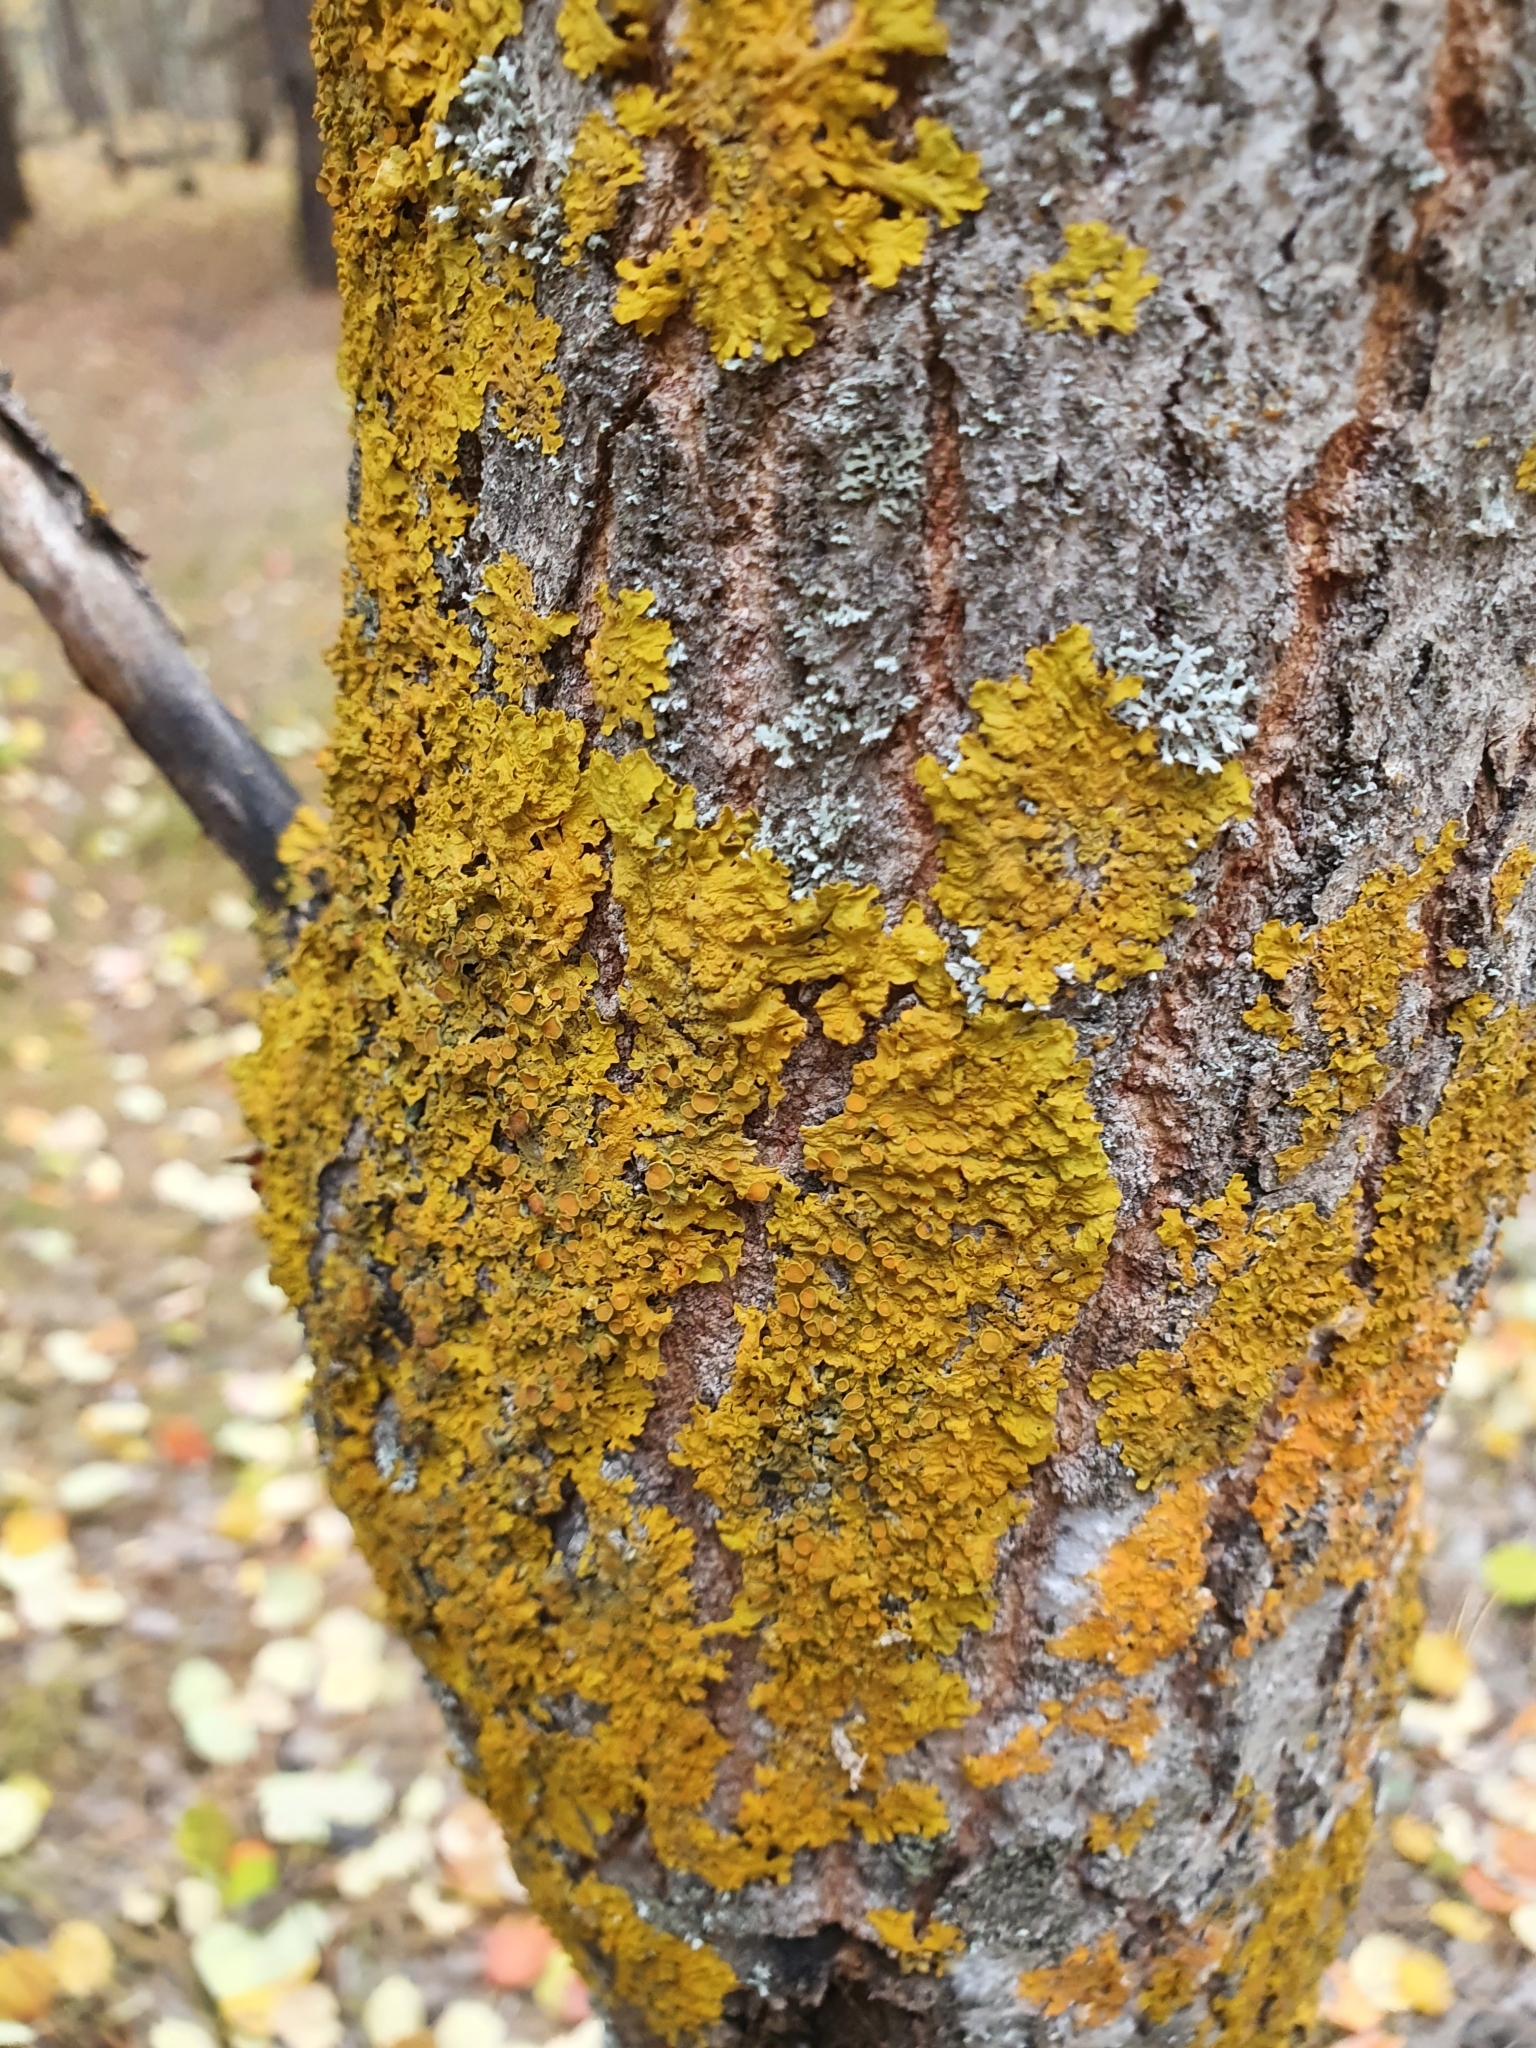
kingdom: Fungi
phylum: Ascomycota
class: Lecanoromycetes
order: Teloschistales
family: Teloschistaceae
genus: Xanthoria
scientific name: Xanthoria parietina
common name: Common orange lichen
